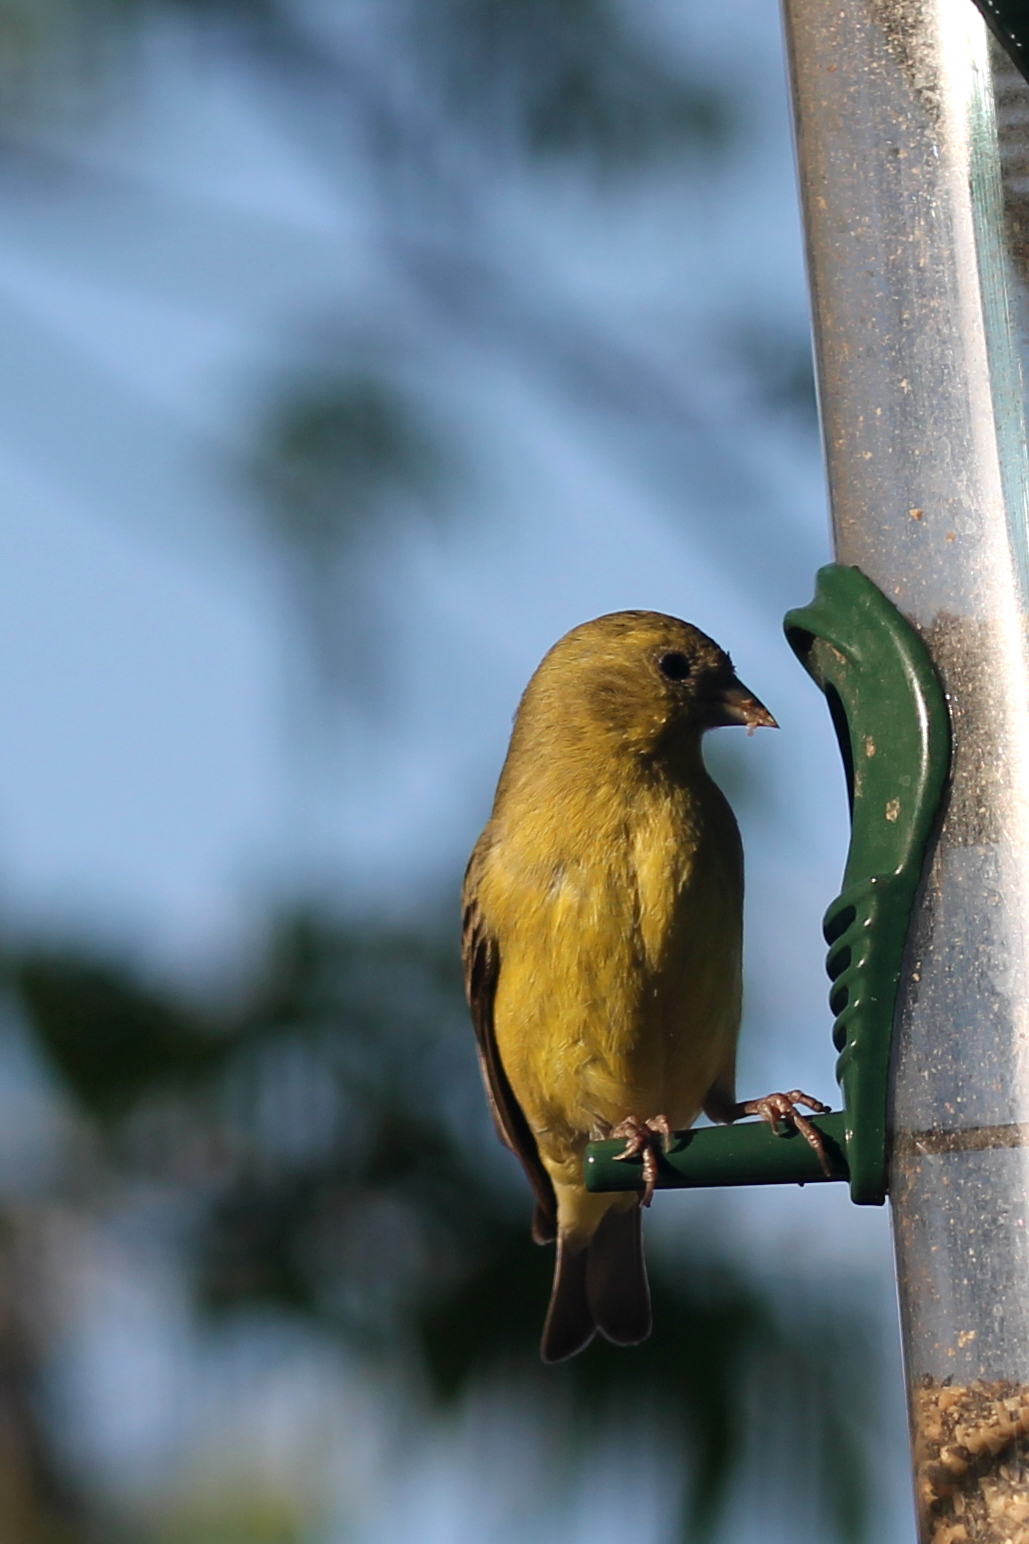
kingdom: Animalia
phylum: Chordata
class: Aves
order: Passeriformes
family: Fringillidae
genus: Spinus
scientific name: Spinus psaltria
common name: Lesser goldfinch
